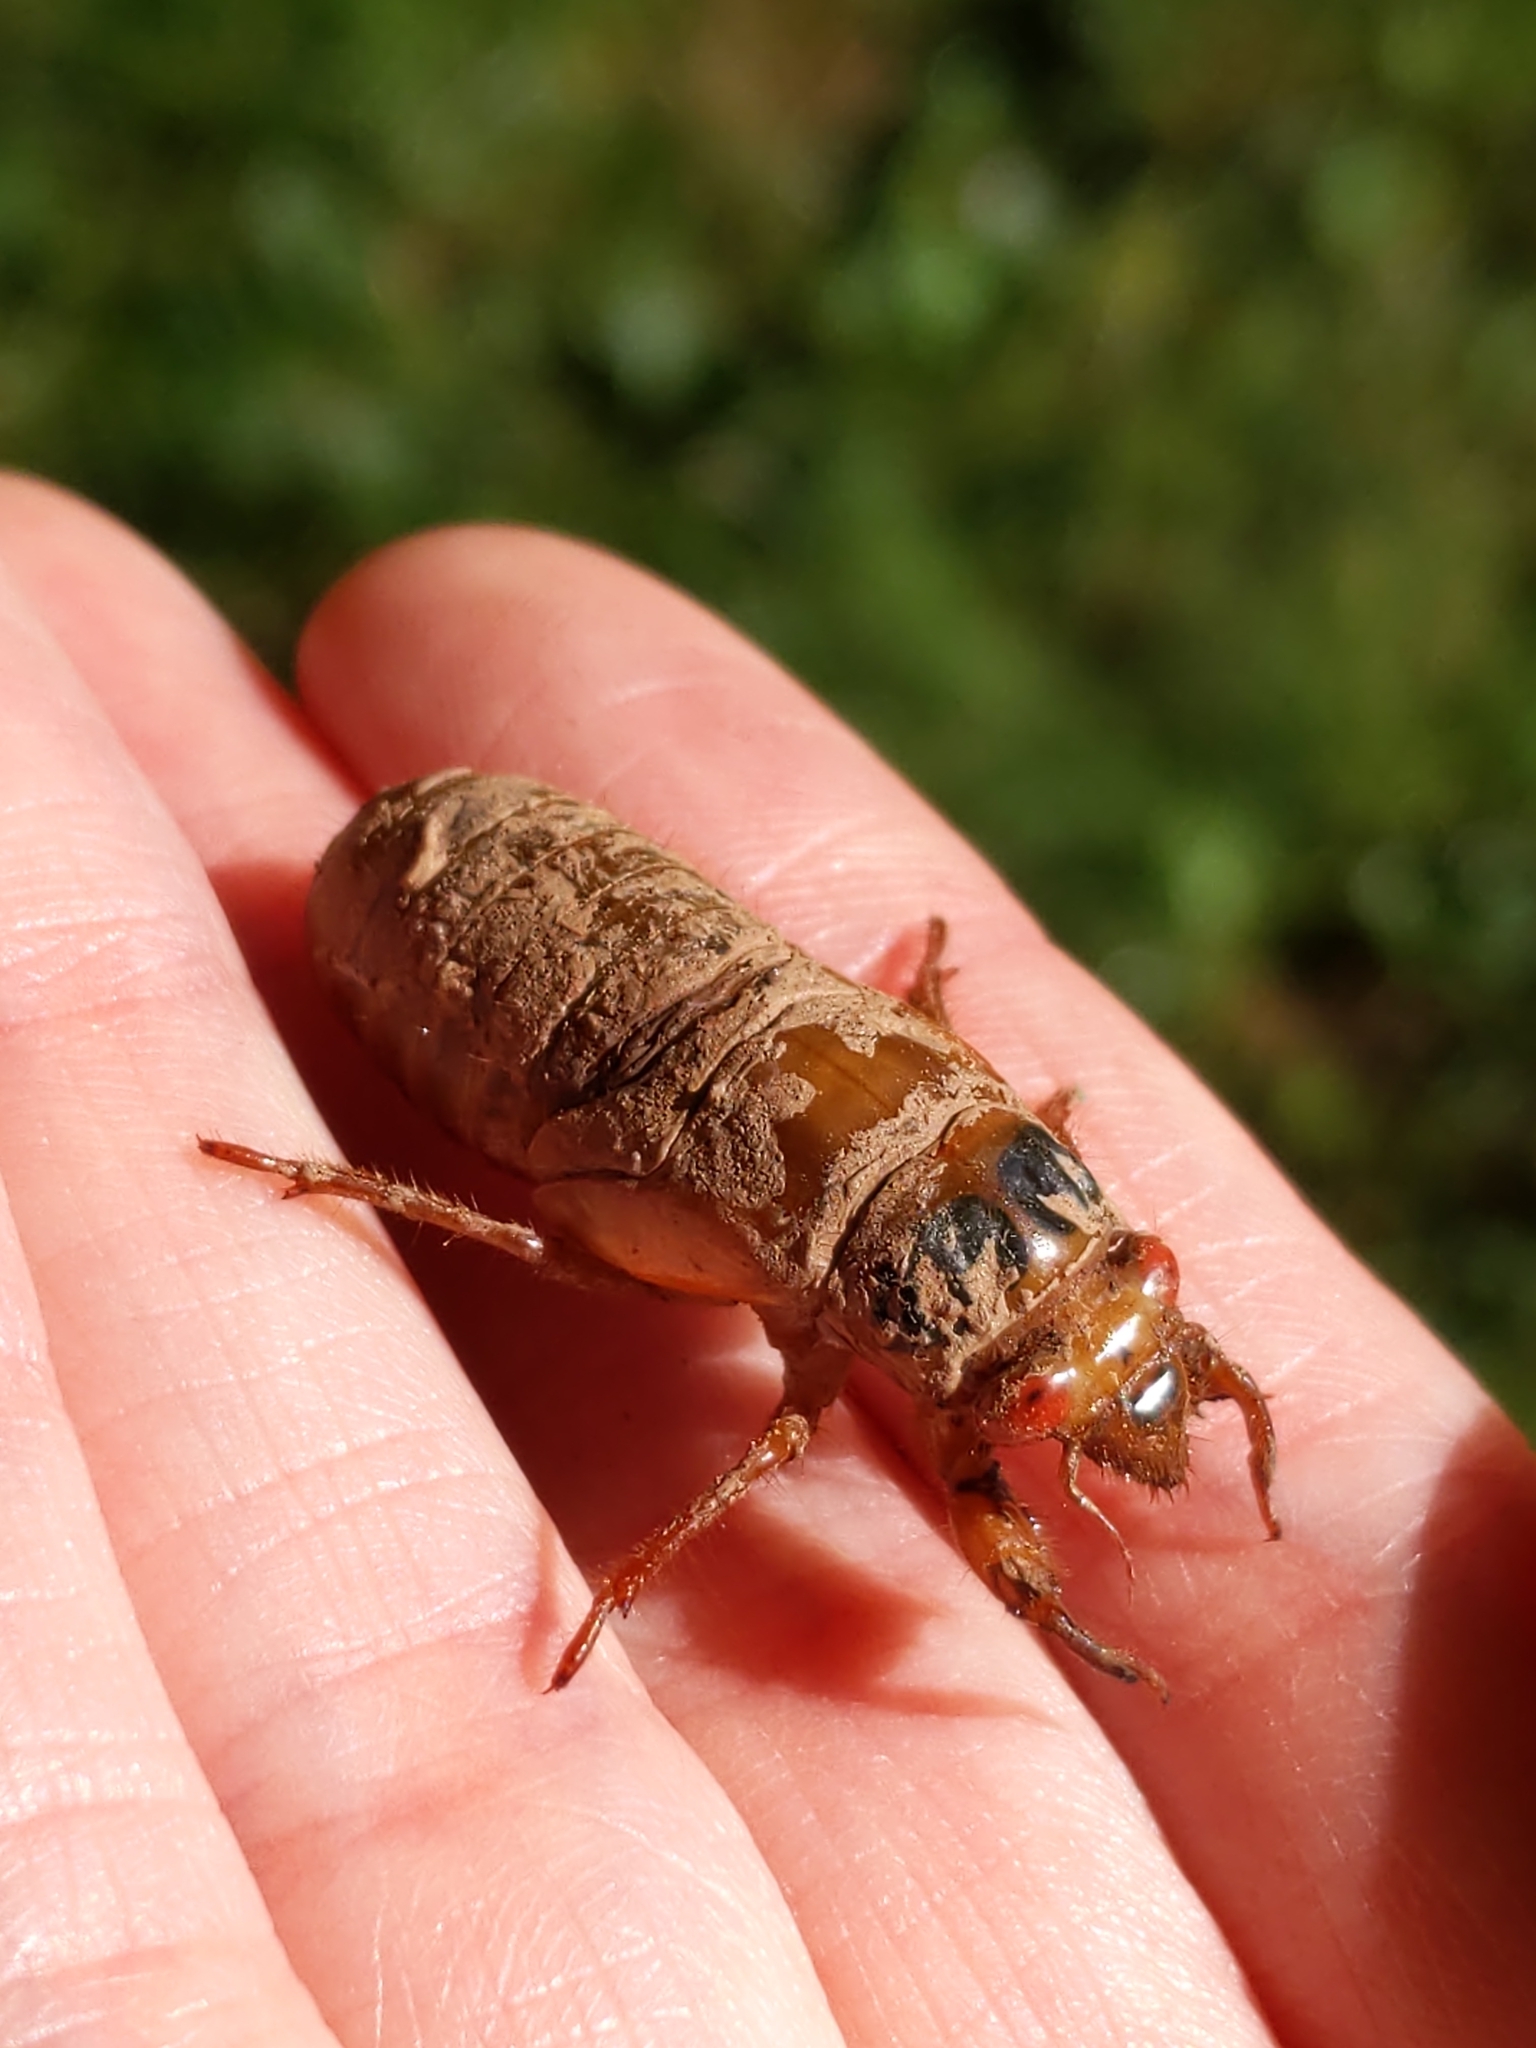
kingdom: Animalia
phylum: Arthropoda
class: Insecta
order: Hemiptera
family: Cicadidae
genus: Magicicada
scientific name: Magicicada
